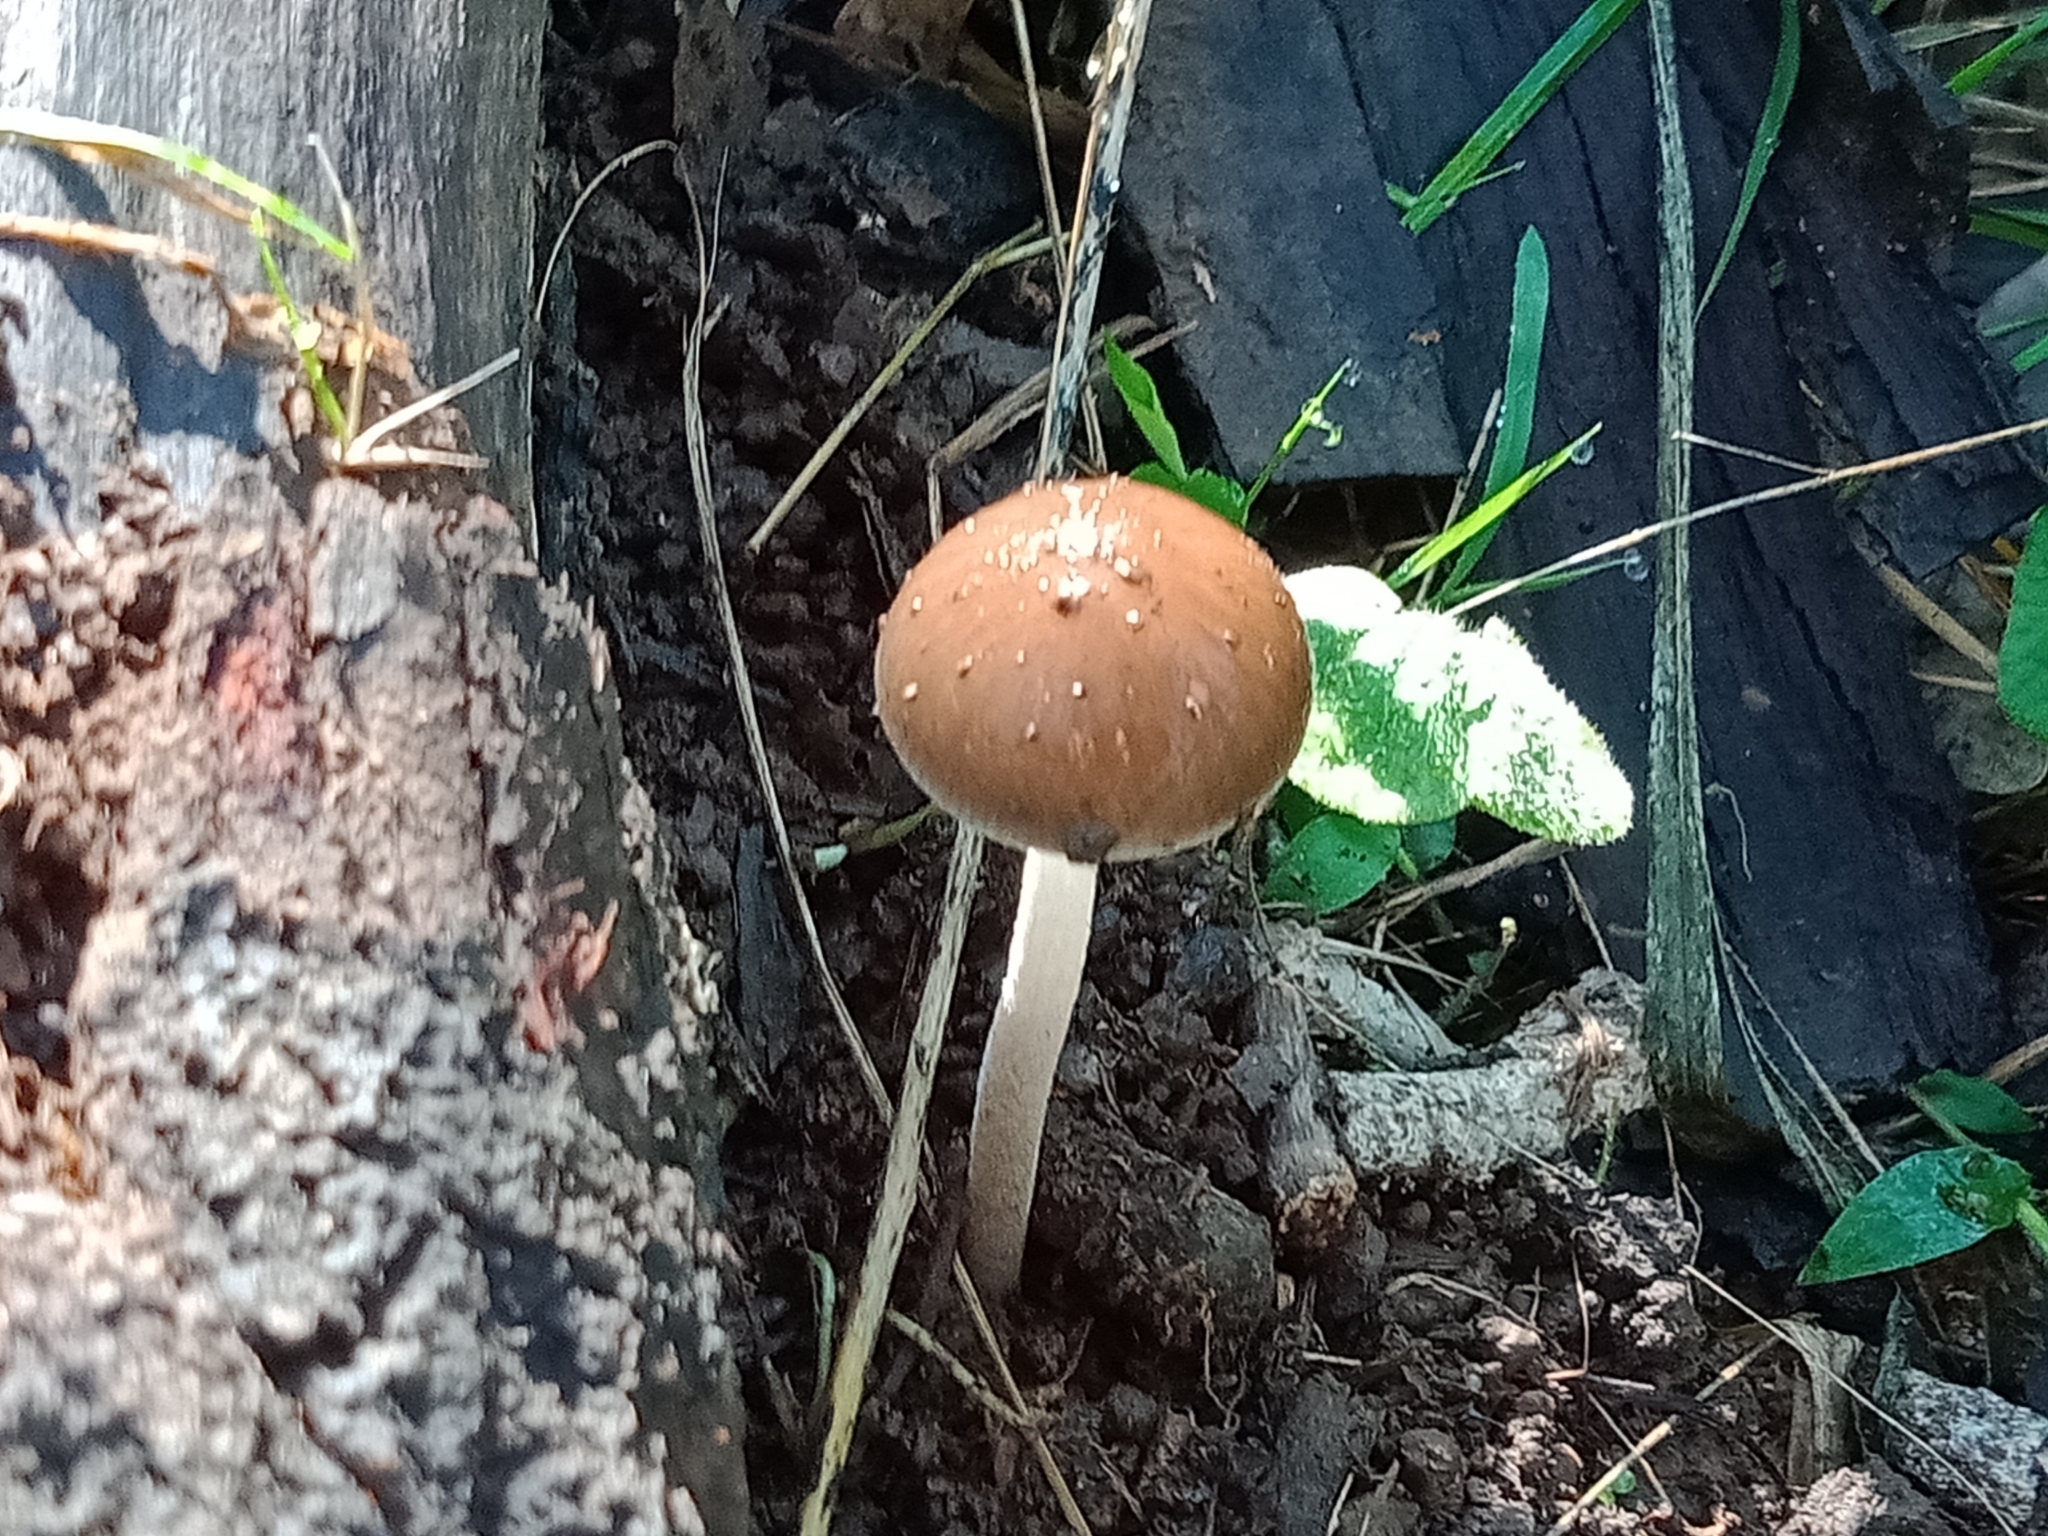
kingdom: Fungi
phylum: Basidiomycota
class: Agaricomycetes
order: Agaricales
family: Physalacriaceae
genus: Hymenopellis
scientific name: Hymenopellis gigaspora
